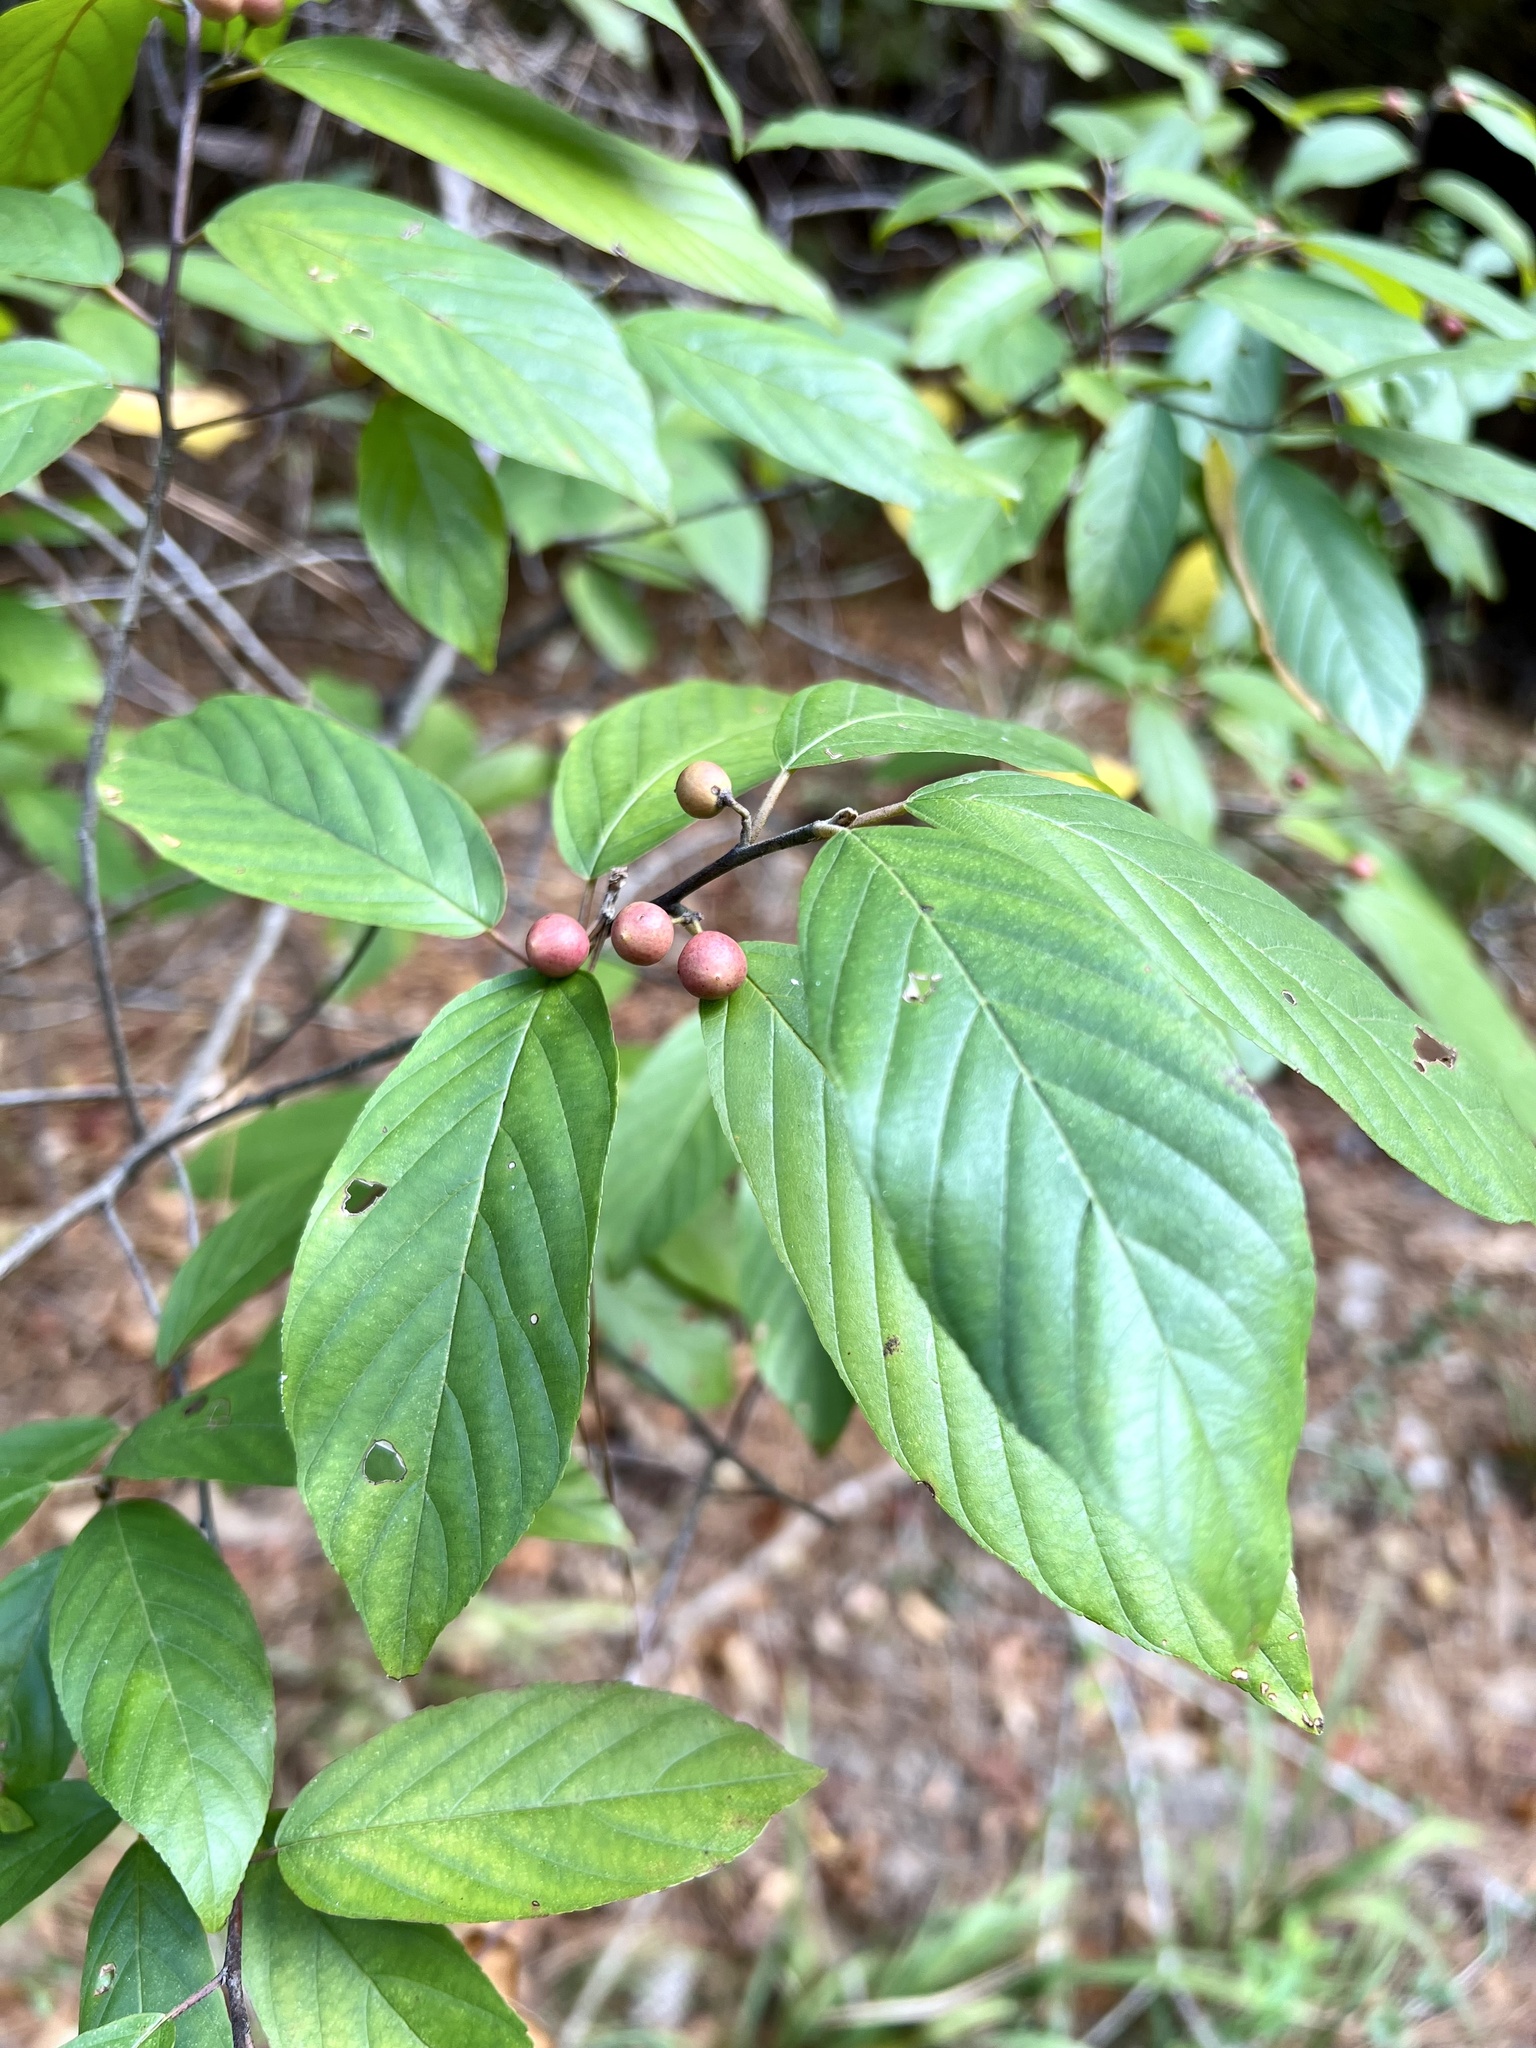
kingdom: Plantae
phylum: Tracheophyta
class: Magnoliopsida
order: Rosales
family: Rhamnaceae
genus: Frangula
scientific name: Frangula caroliniana
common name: Carolina buckthorn
